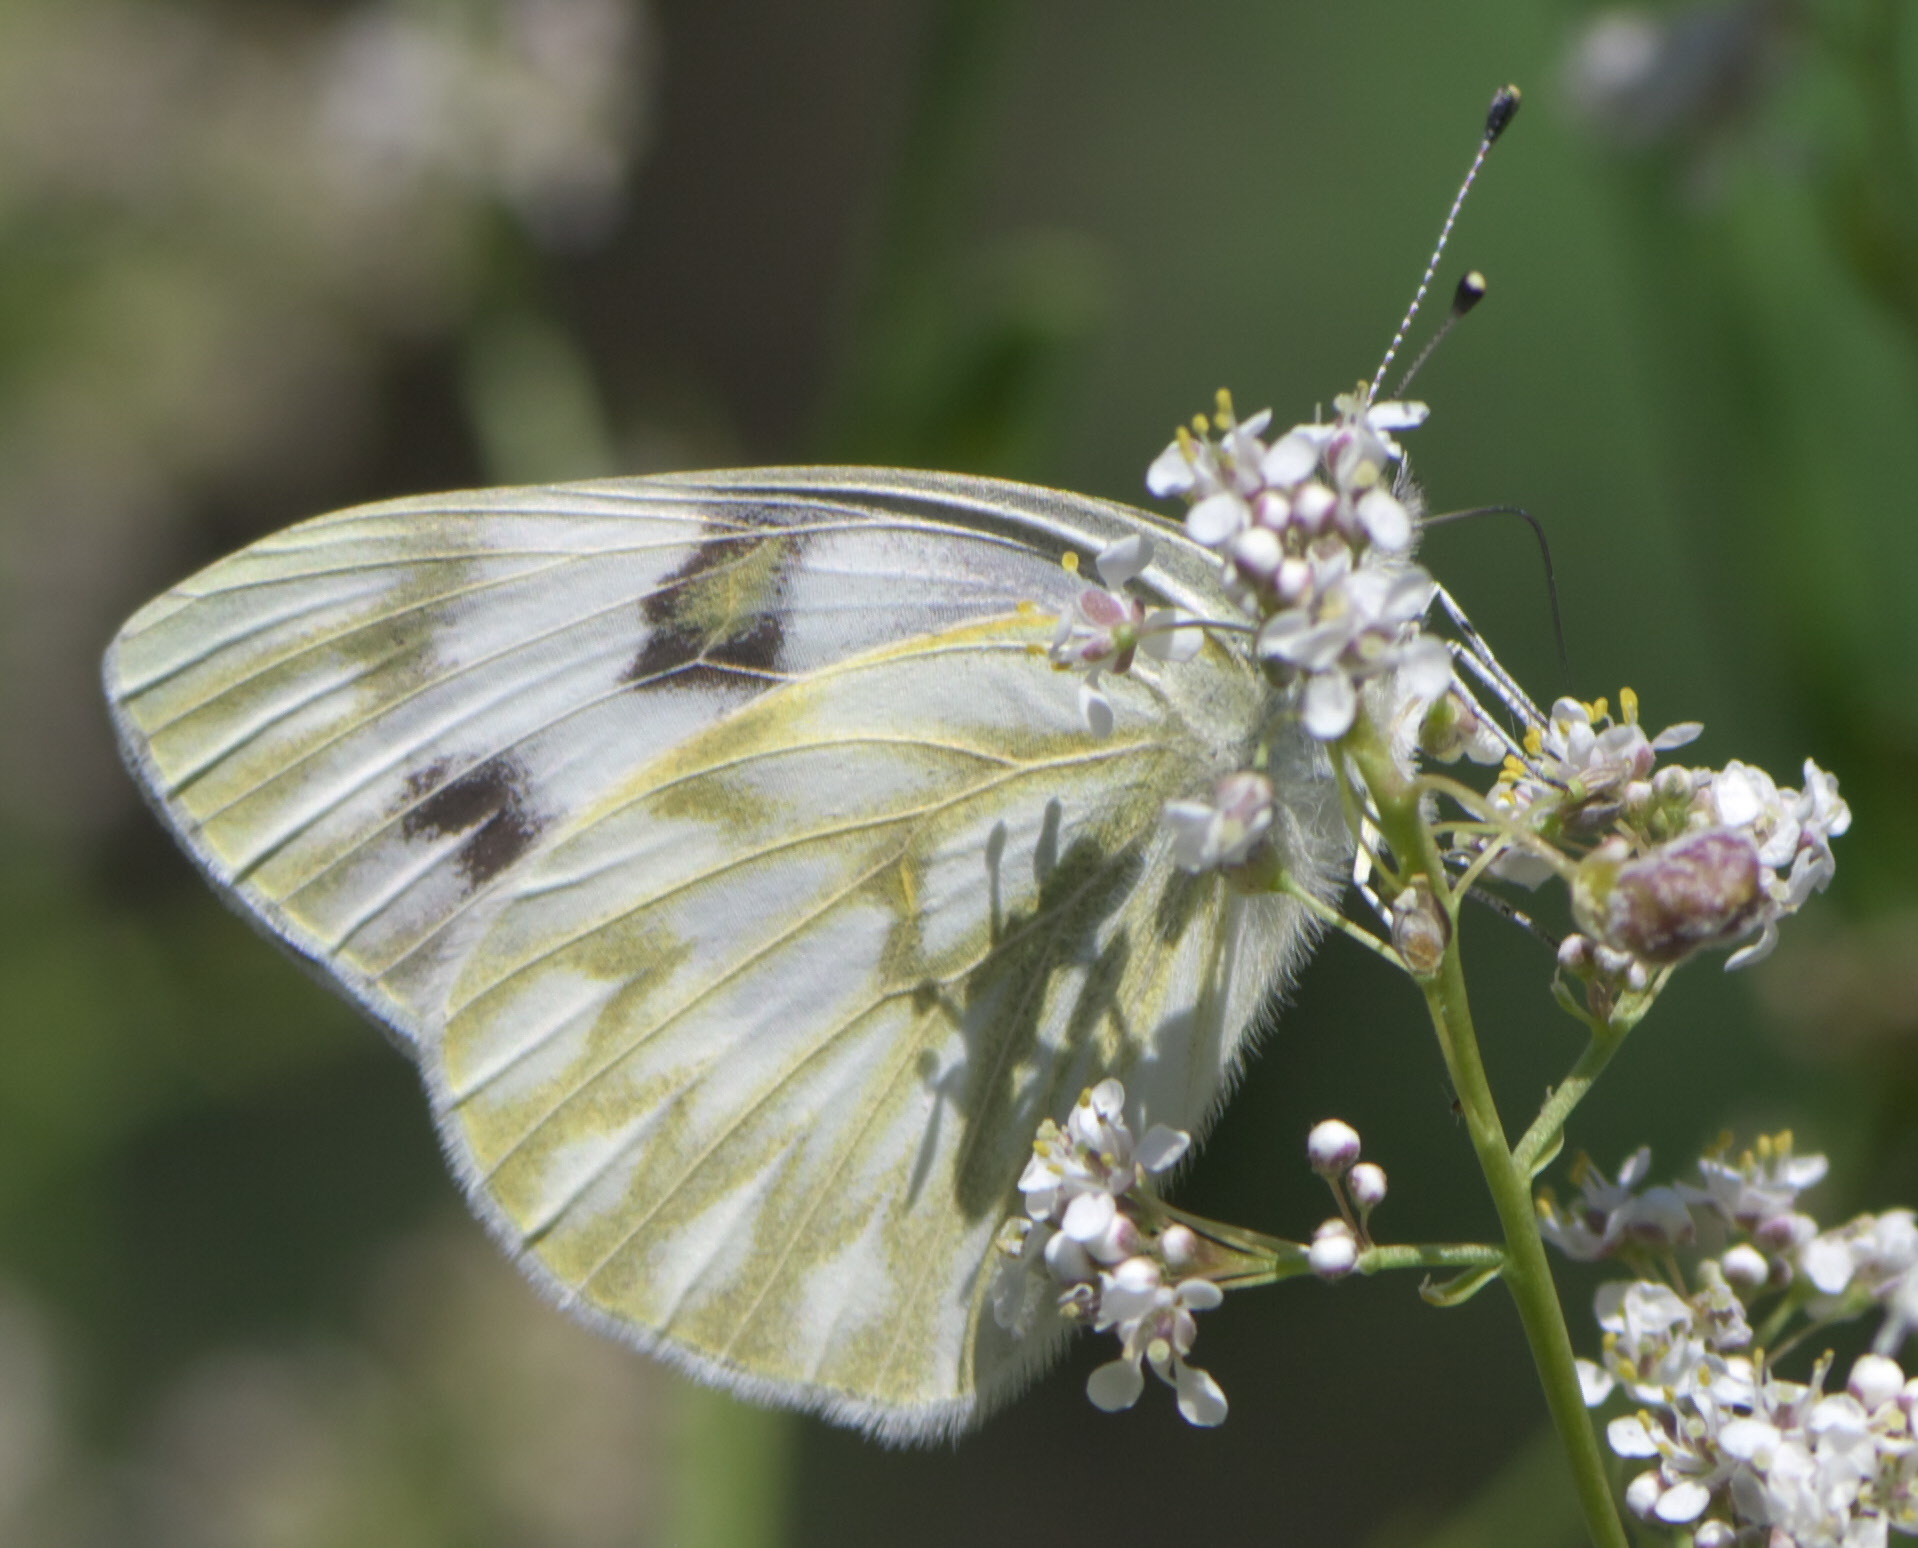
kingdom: Animalia
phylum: Arthropoda
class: Insecta
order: Lepidoptera
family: Pieridae
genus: Pontia
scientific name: Pontia protodice
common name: Checkered white
